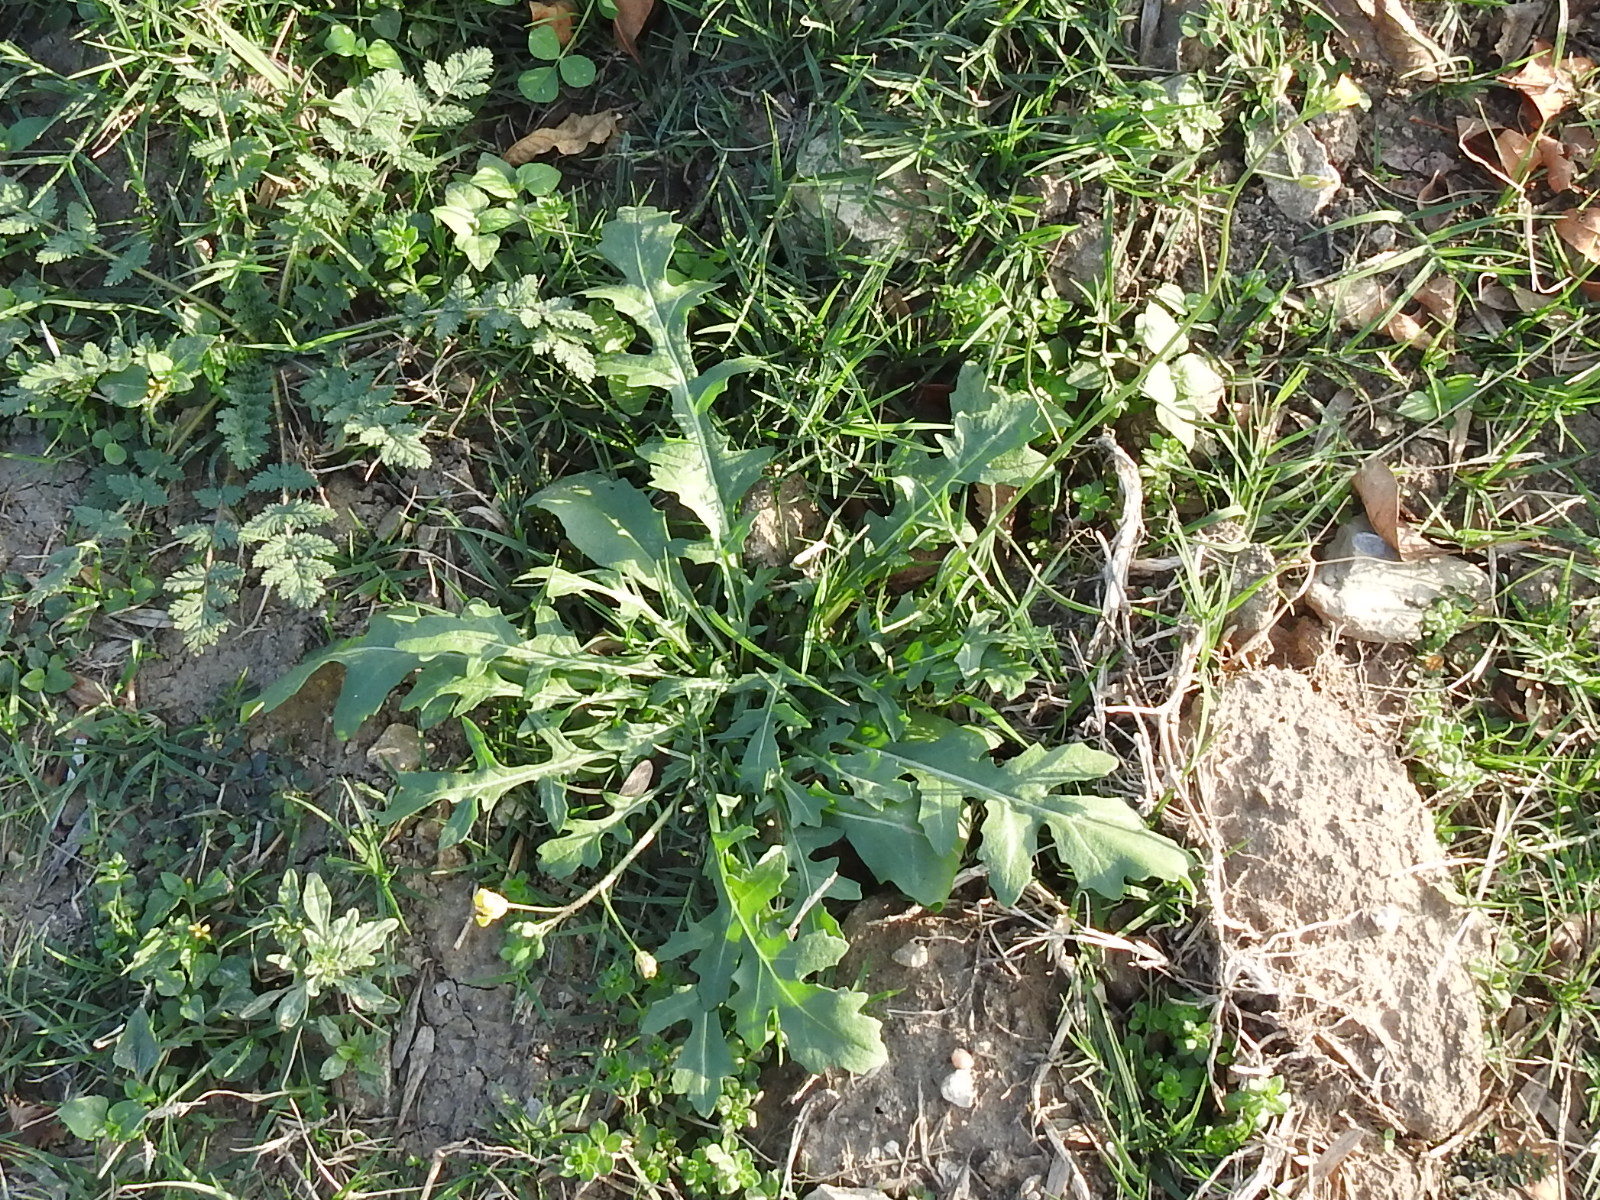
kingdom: Plantae
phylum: Tracheophyta
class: Magnoliopsida
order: Brassicales
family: Brassicaceae
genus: Diplotaxis
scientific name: Diplotaxis muralis
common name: Annual wall-rocket
